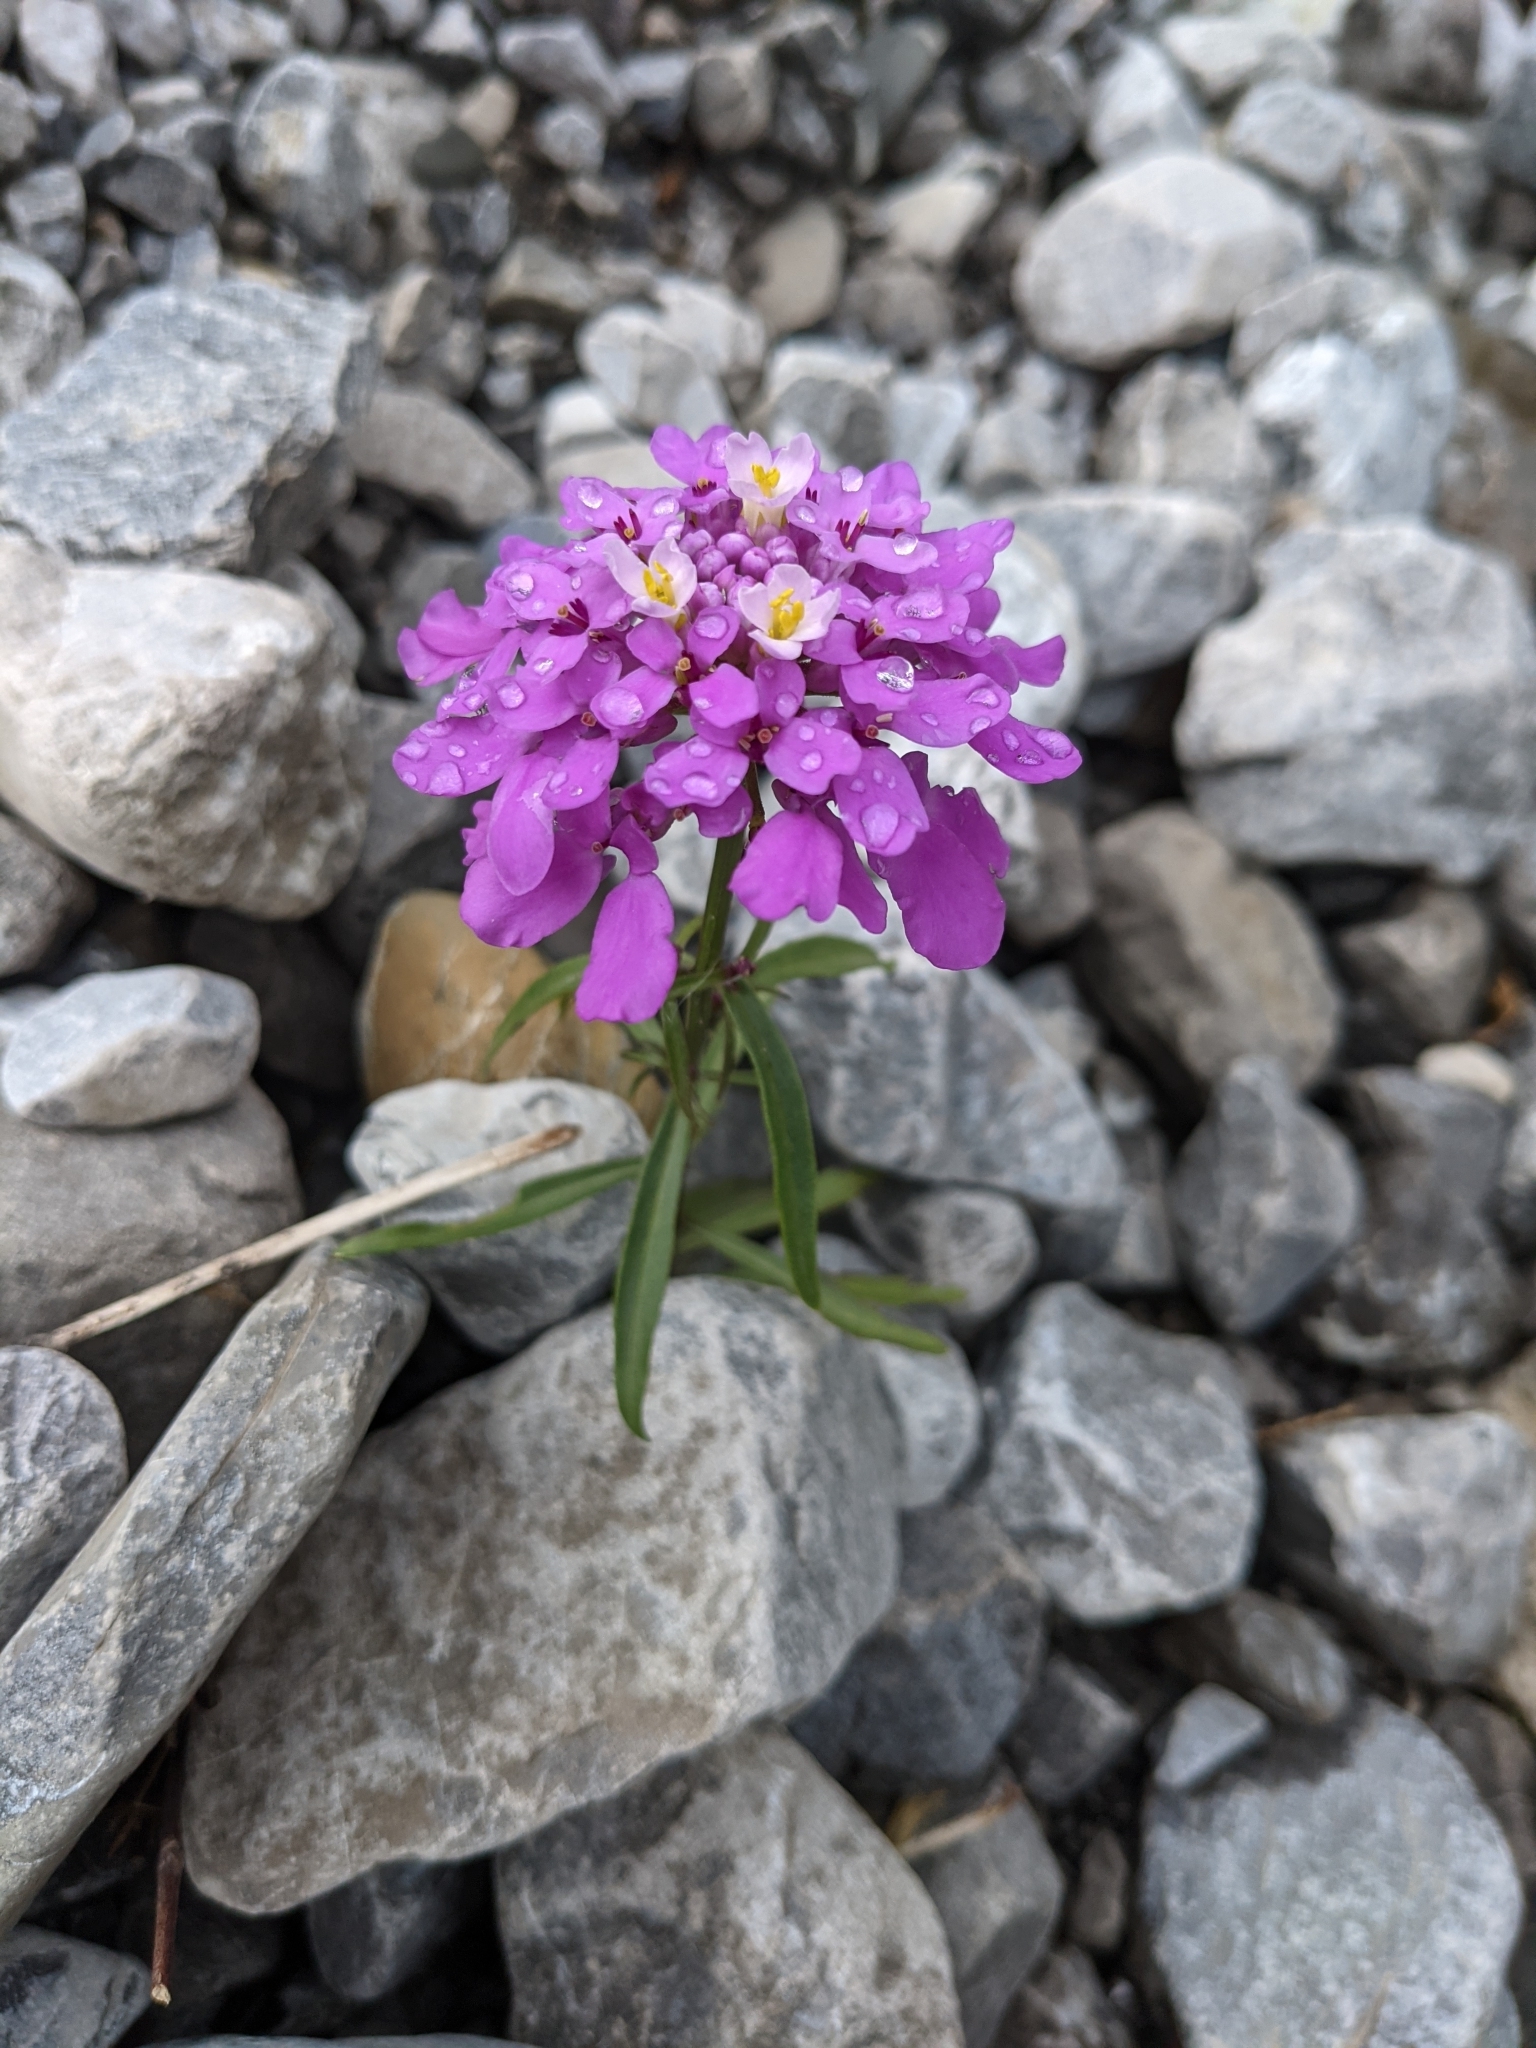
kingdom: Plantae
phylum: Tracheophyta
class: Magnoliopsida
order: Brassicales
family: Brassicaceae
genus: Iberis
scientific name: Iberis umbellata
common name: Globe candytuft
